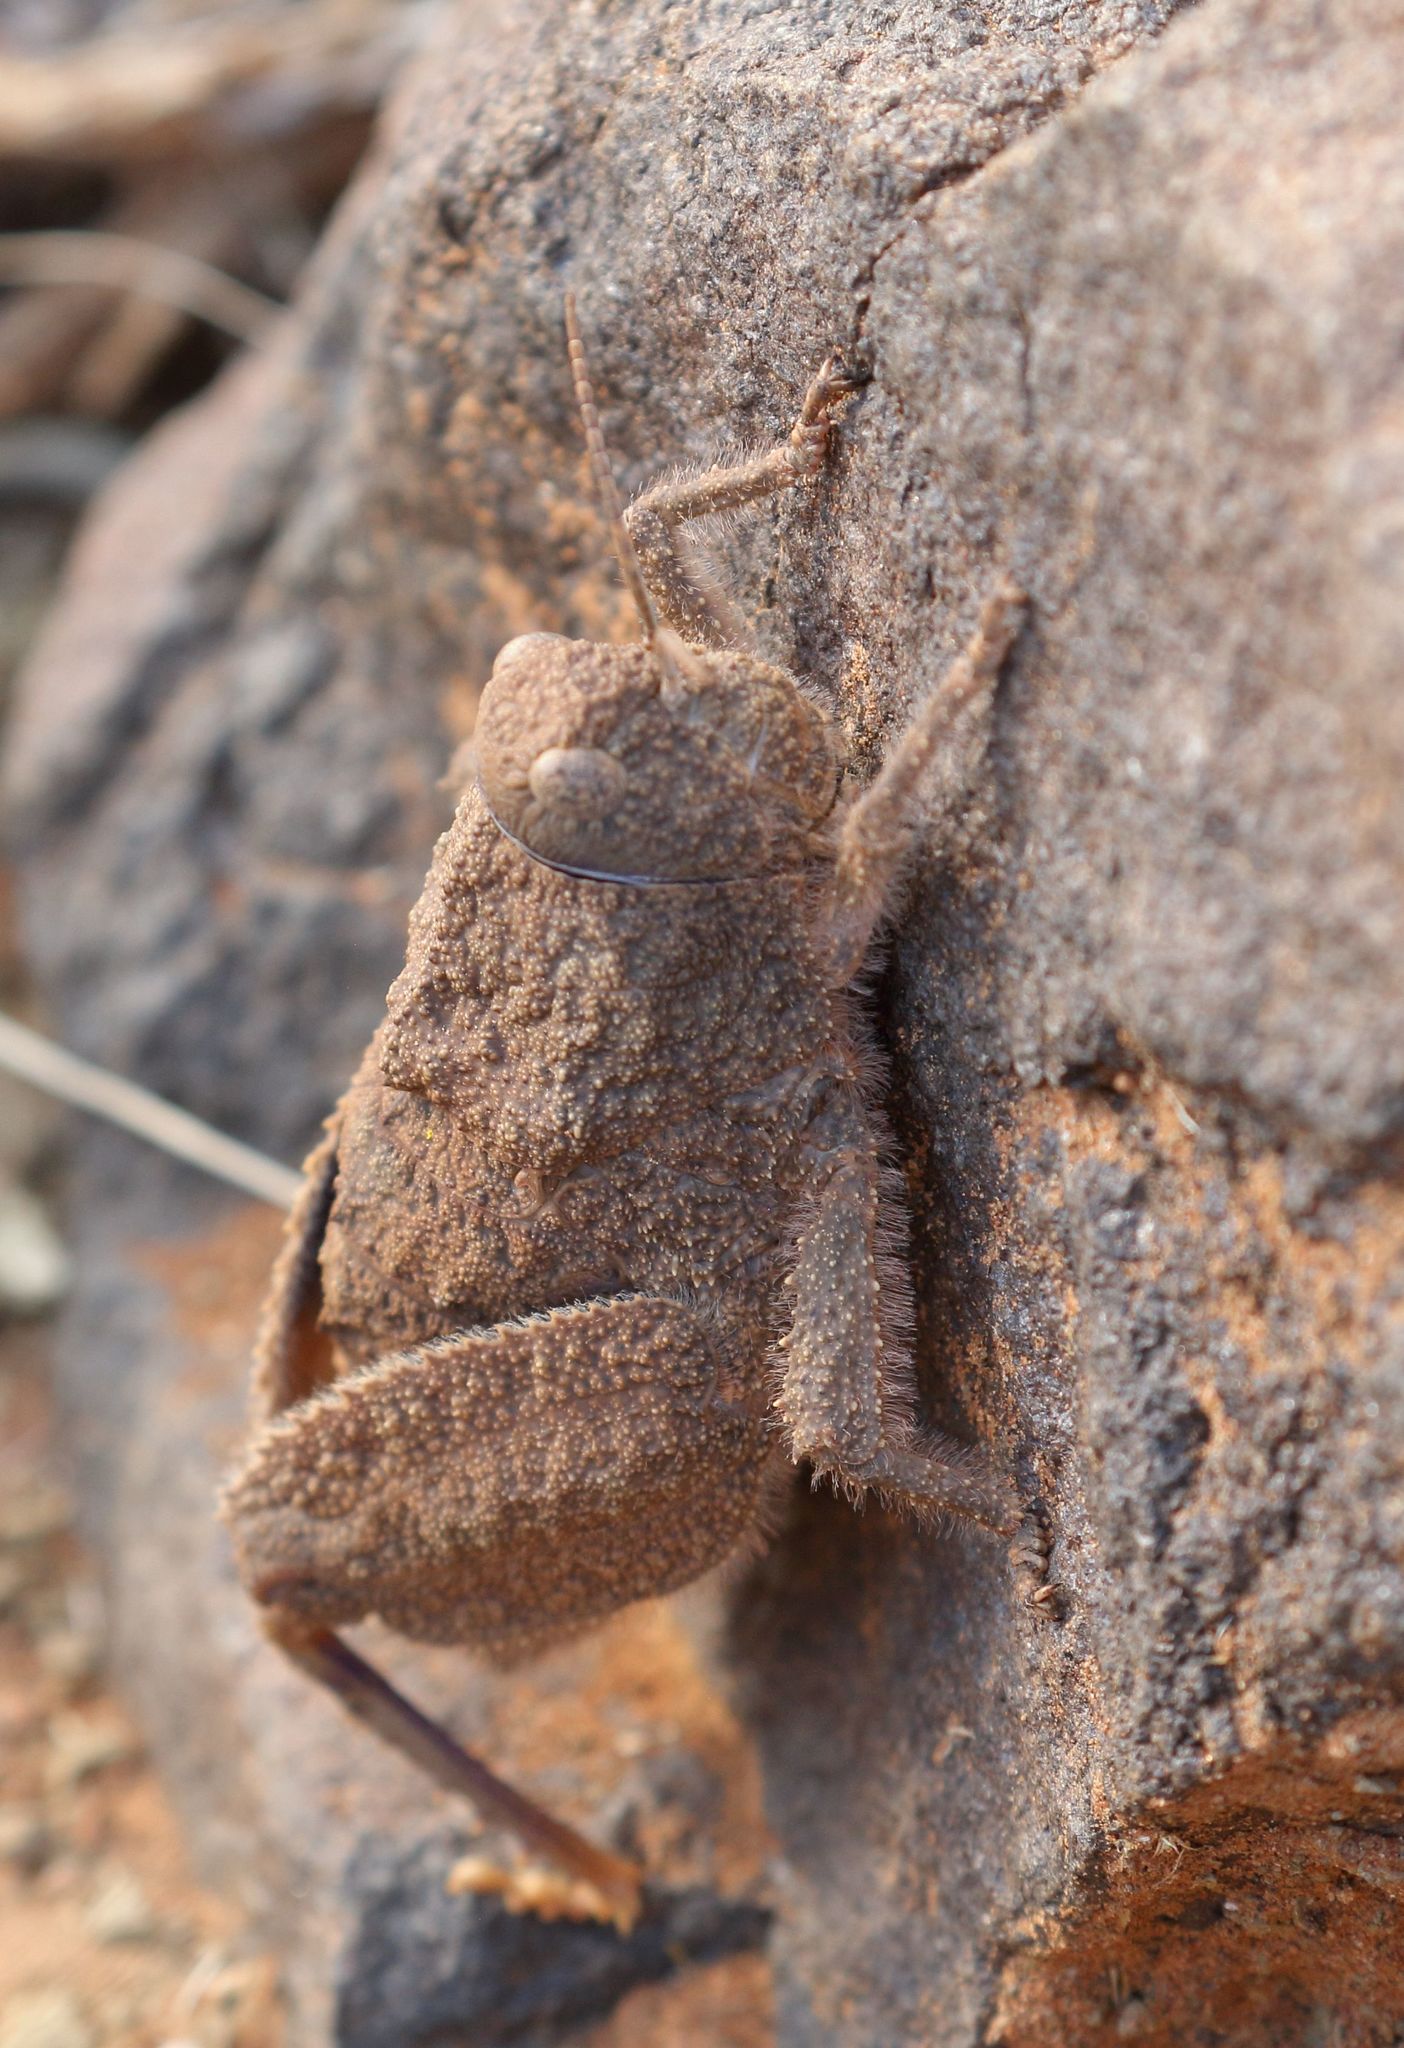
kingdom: Animalia
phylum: Arthropoda
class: Insecta
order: Orthoptera
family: Pamphagidae
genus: Trachypetrella
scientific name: Trachypetrella anderssonii
